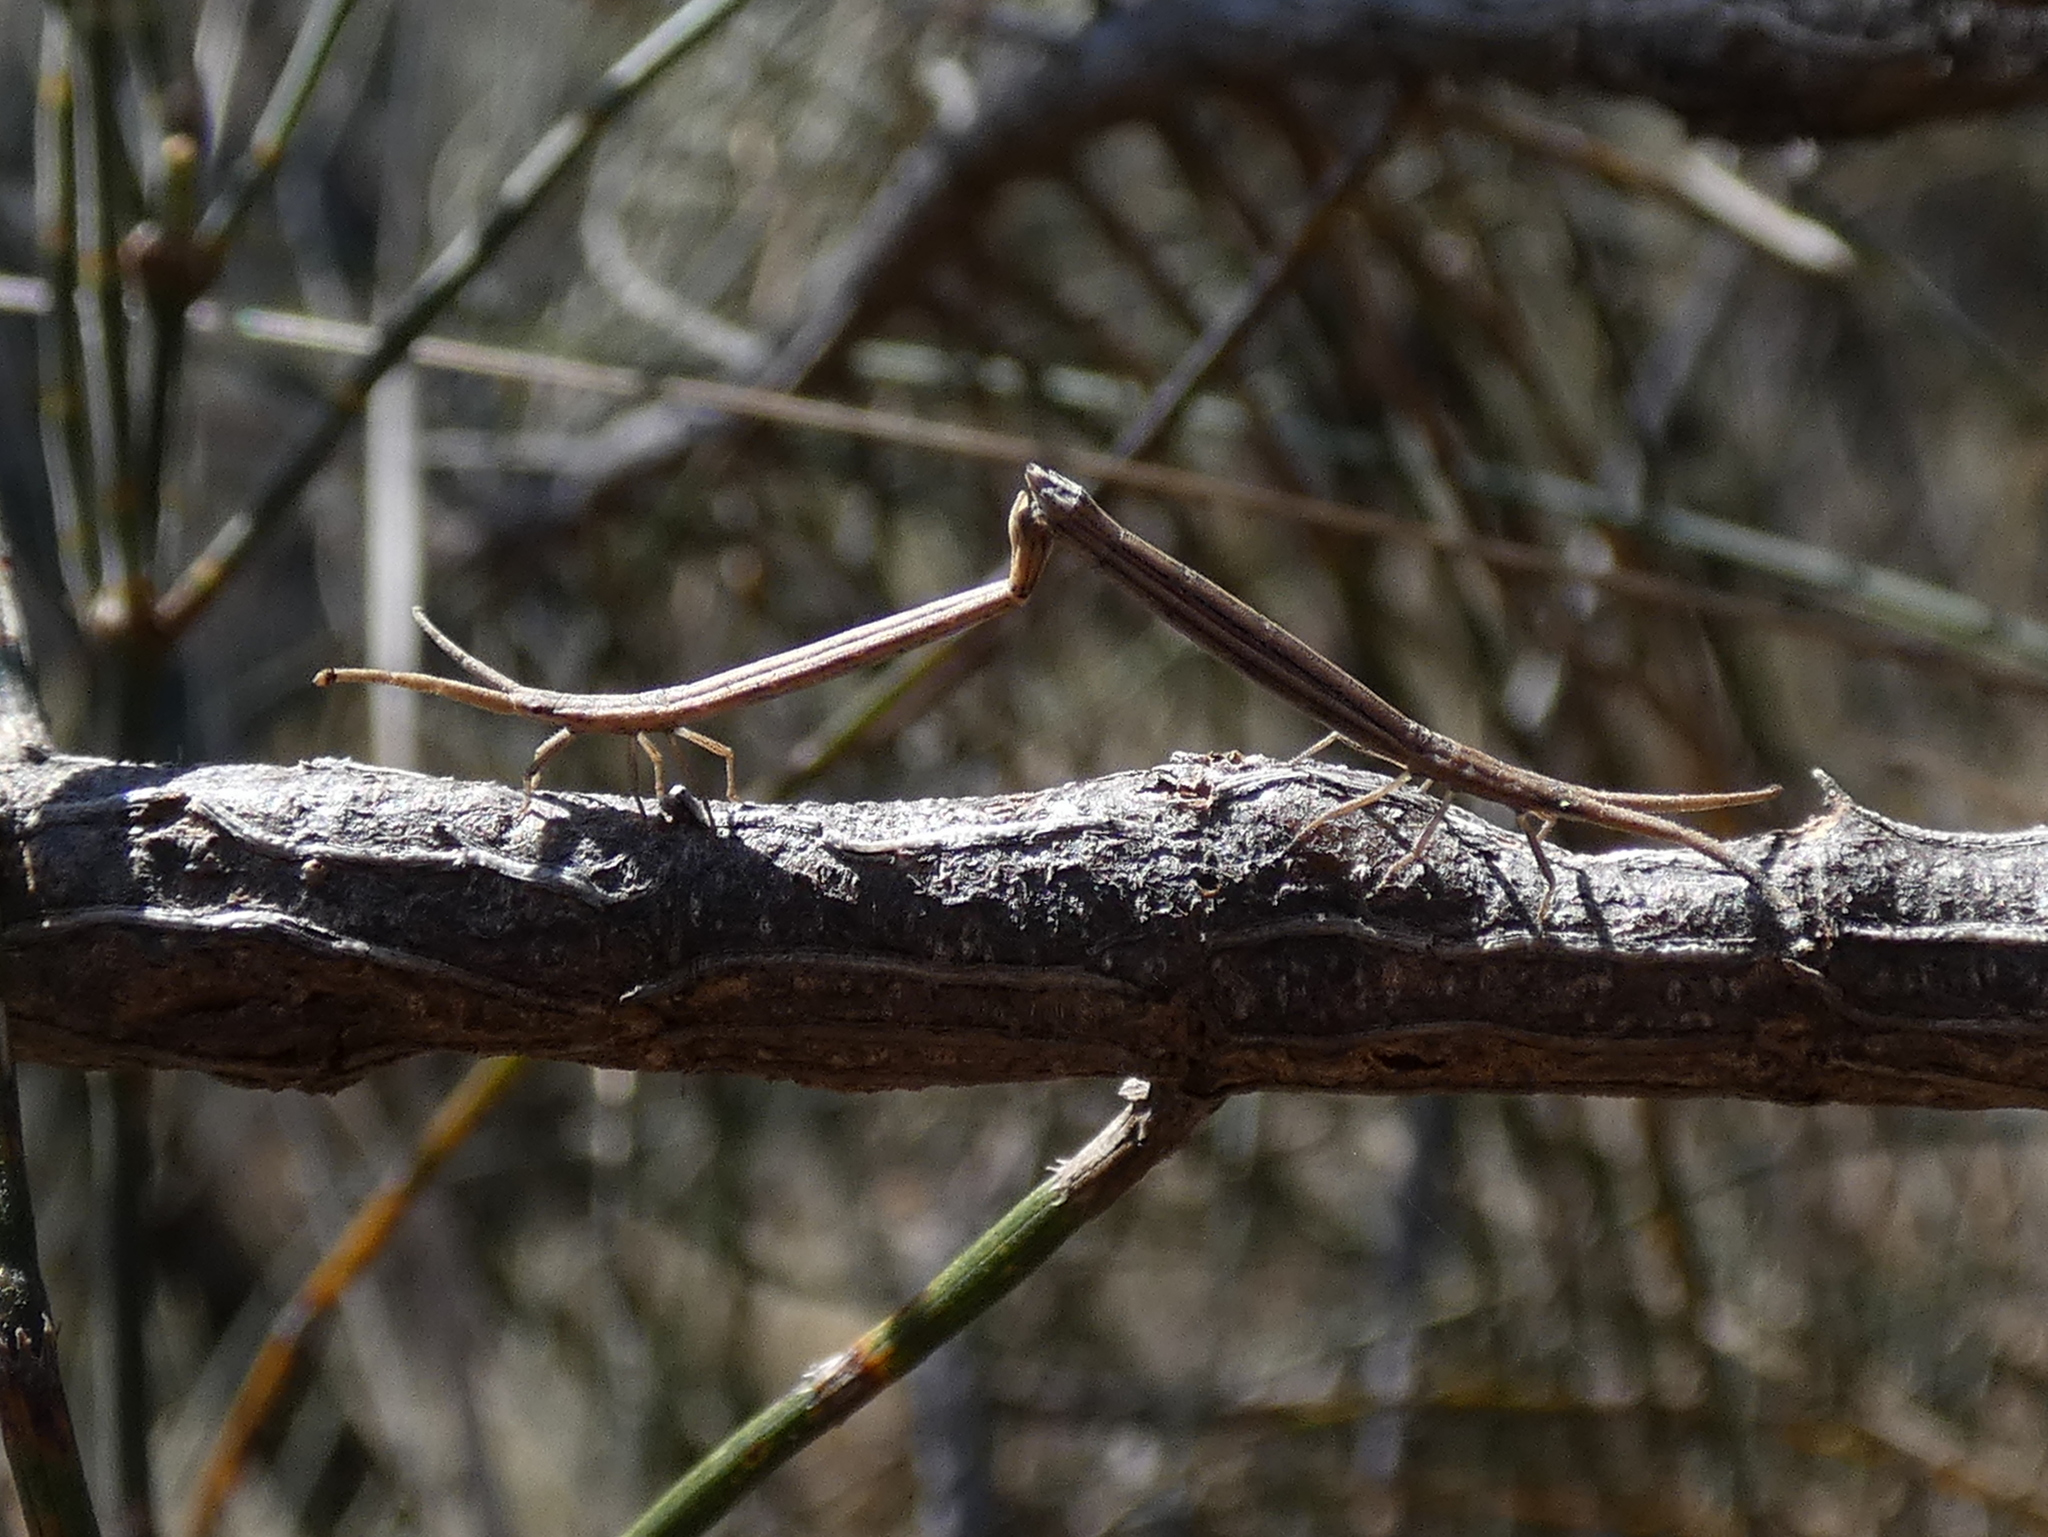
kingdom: Animalia
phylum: Arthropoda
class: Insecta
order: Hemiptera
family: Coreidae
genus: Tylocryptus
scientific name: Tylocryptus egenus
